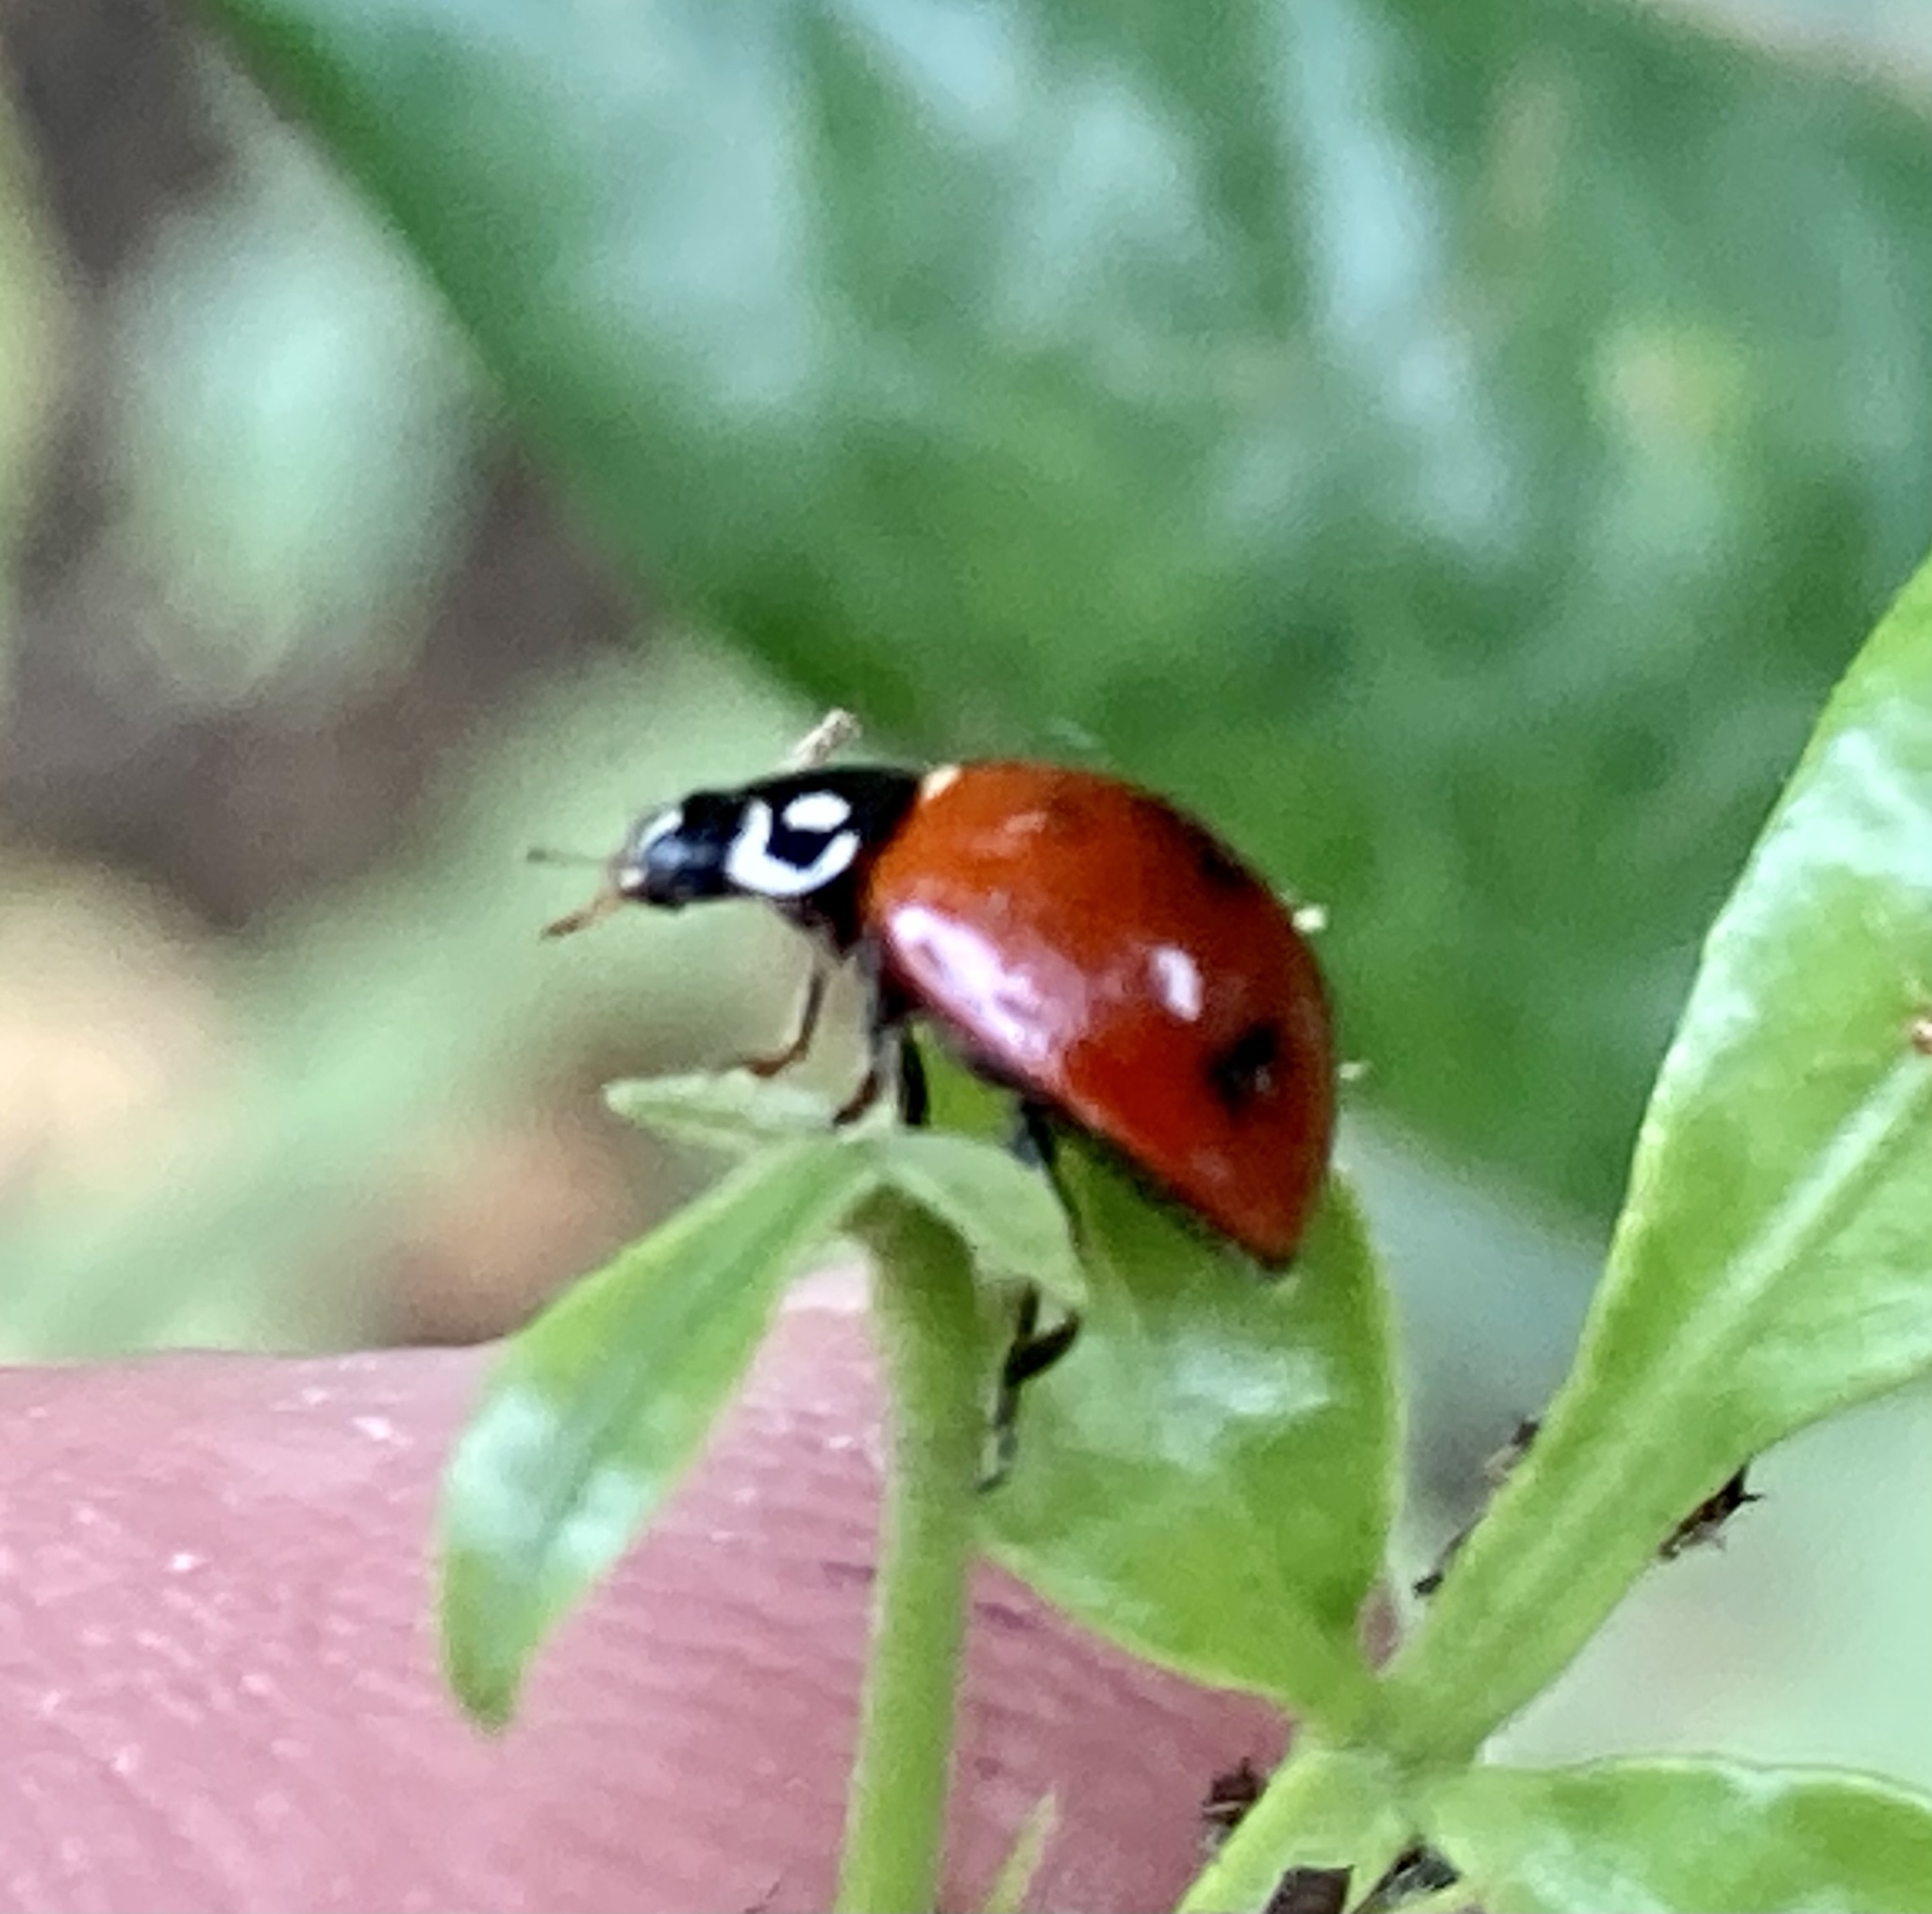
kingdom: Animalia
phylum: Arthropoda
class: Insecta
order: Coleoptera
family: Coccinellidae
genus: Cycloneda
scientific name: Cycloneda sanguinea
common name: Ladybird beetle
